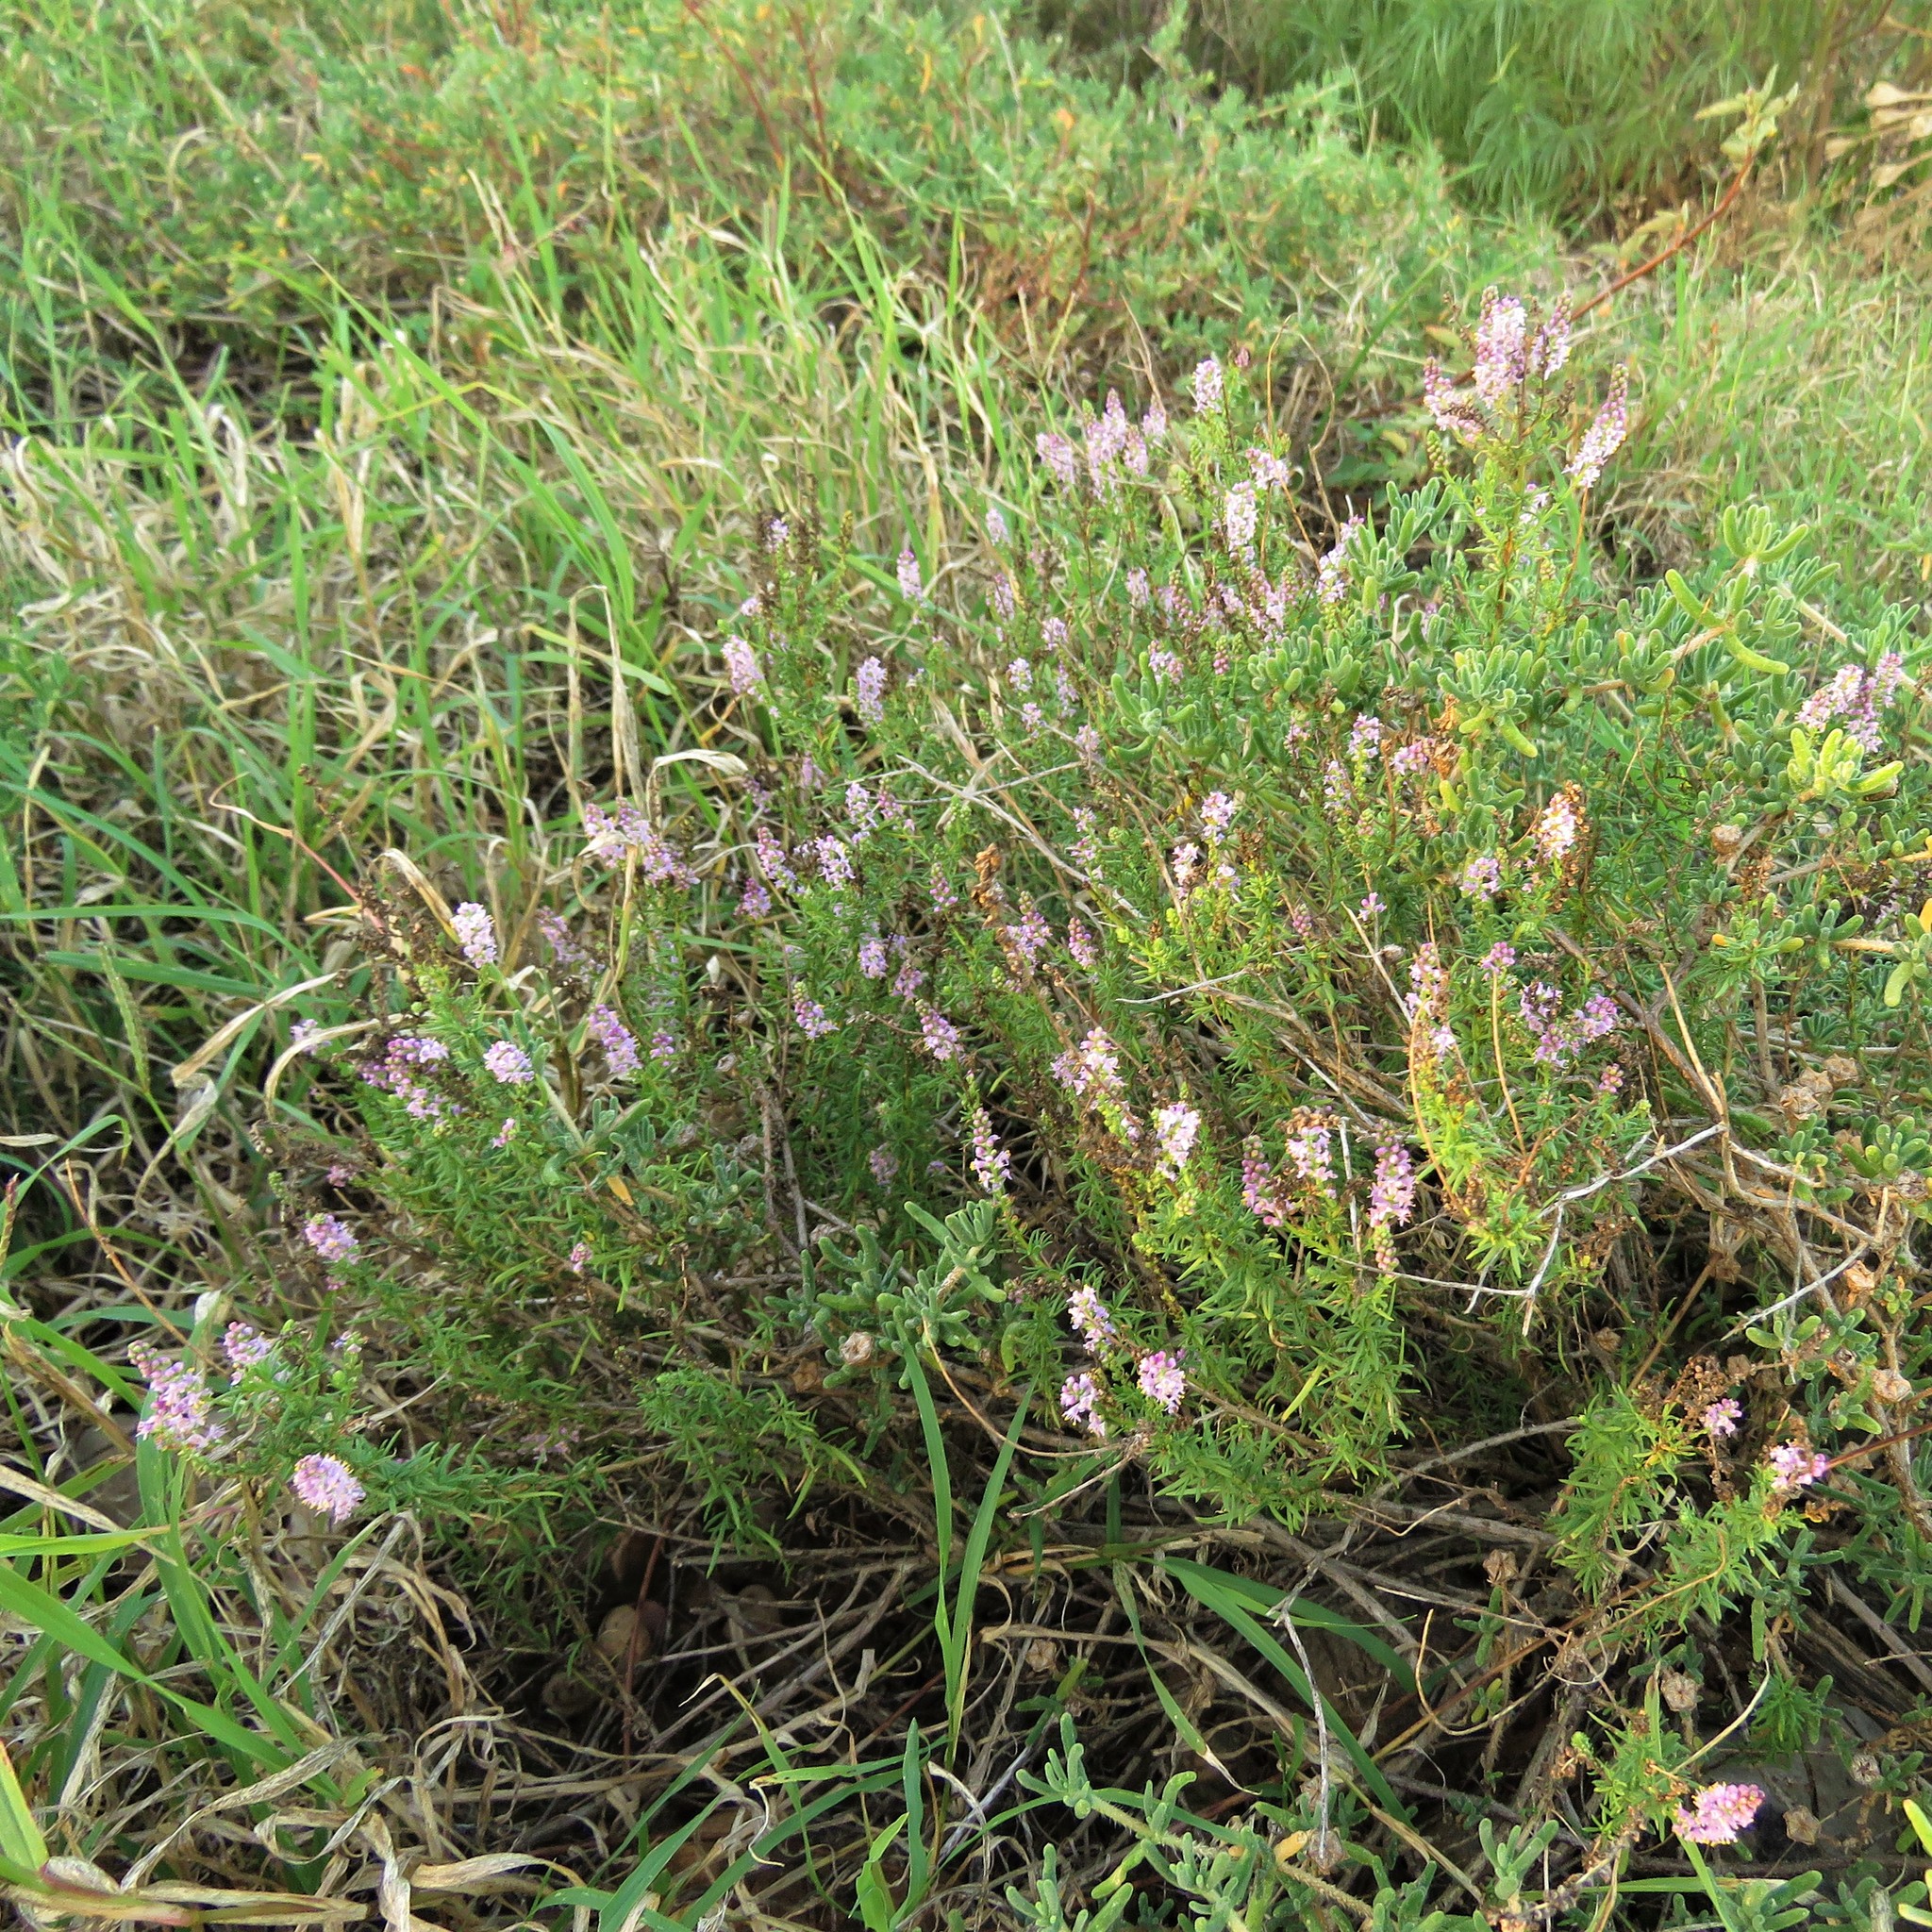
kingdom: Plantae
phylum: Tracheophyta
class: Magnoliopsida
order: Lamiales
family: Scrophulariaceae
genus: Selago
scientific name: Selago geniculata
